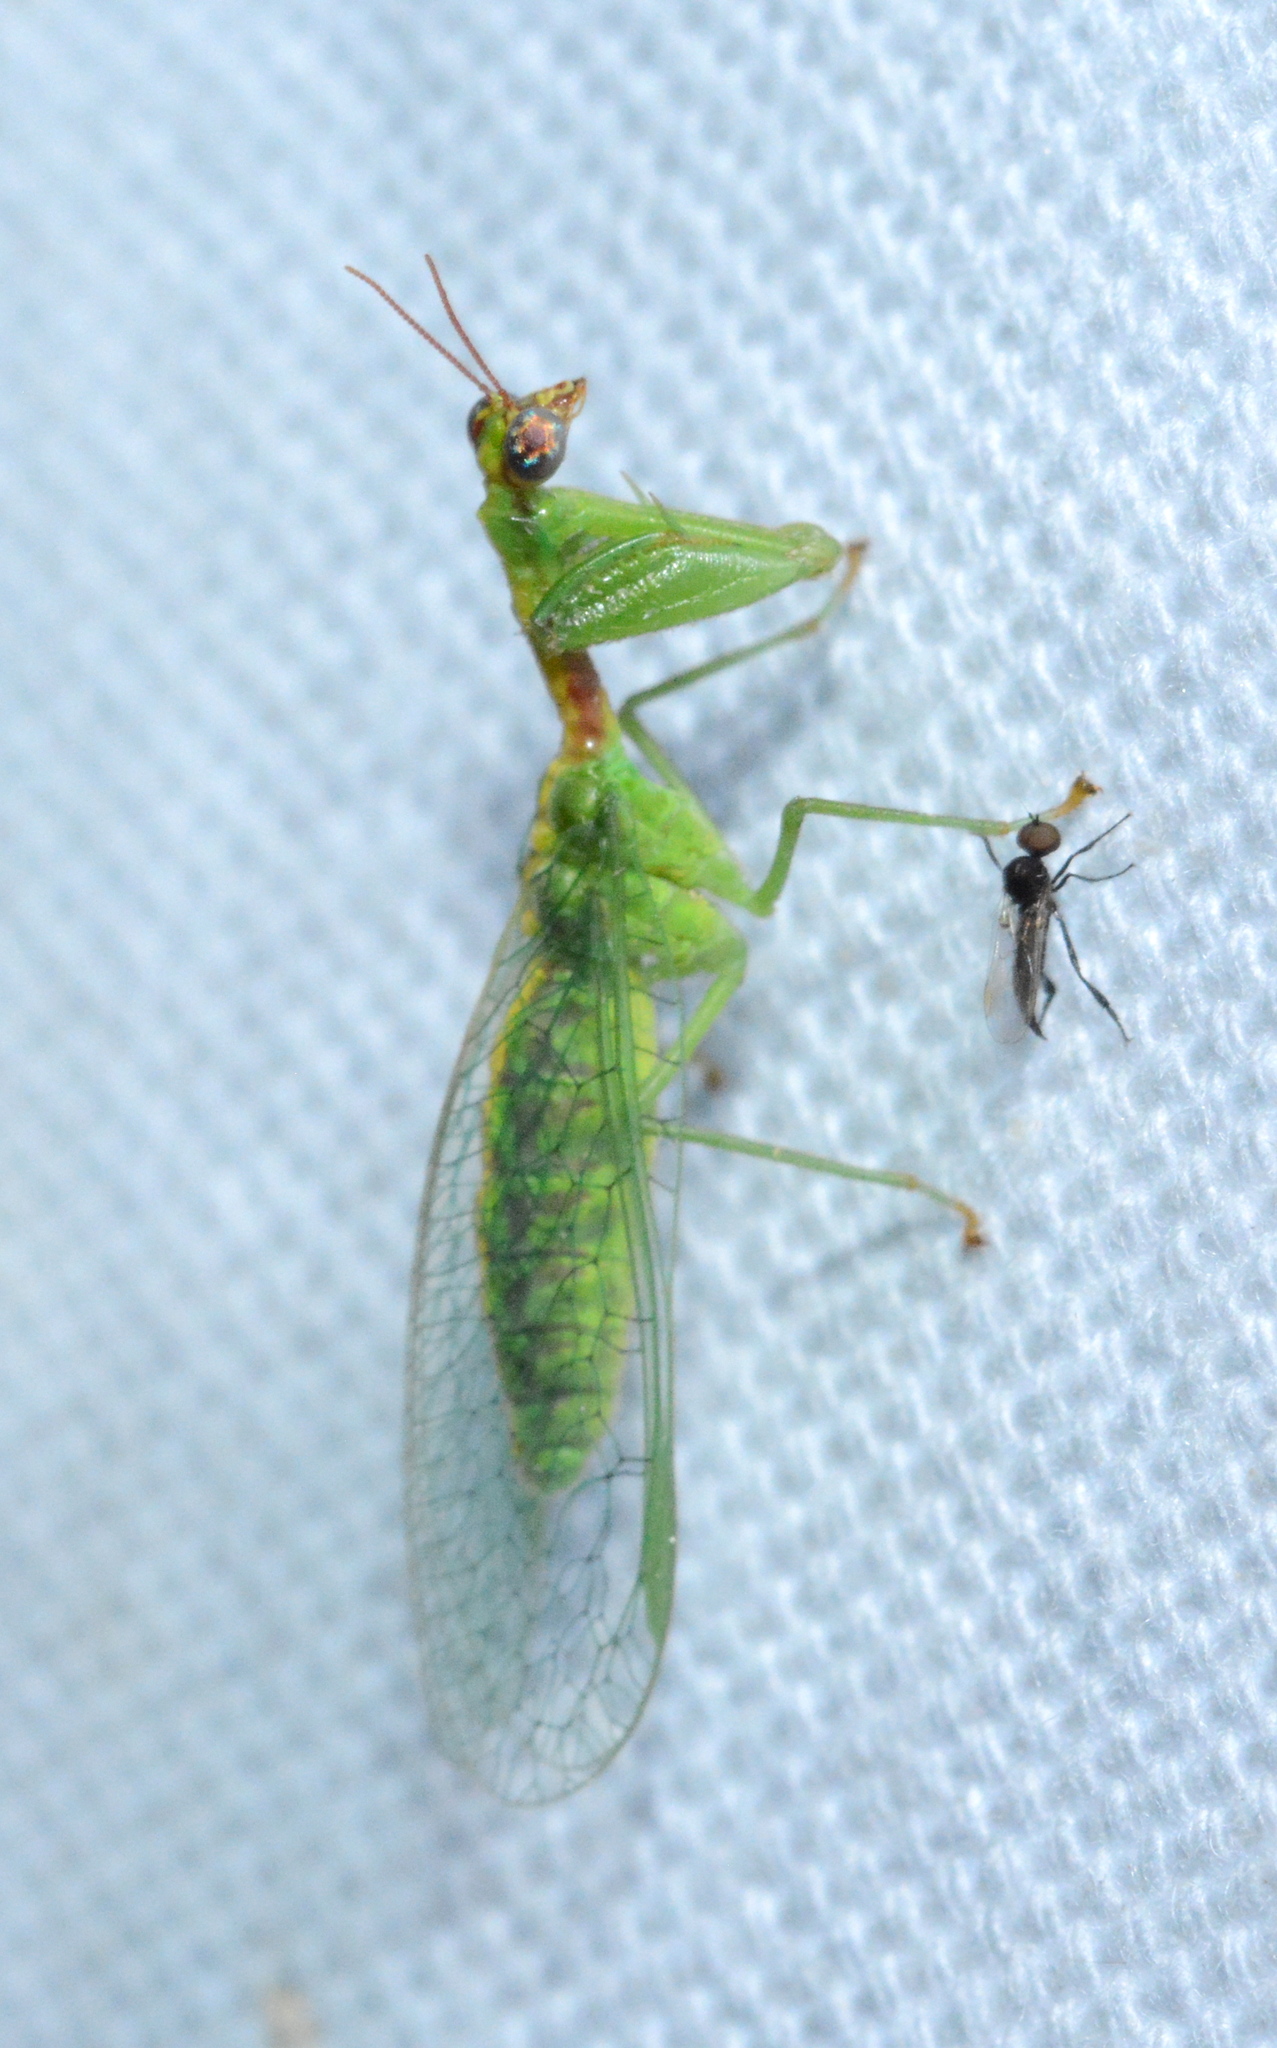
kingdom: Animalia
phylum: Arthropoda
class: Insecta
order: Neuroptera
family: Mantispidae
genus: Zeugomantispa
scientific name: Zeugomantispa minuta
